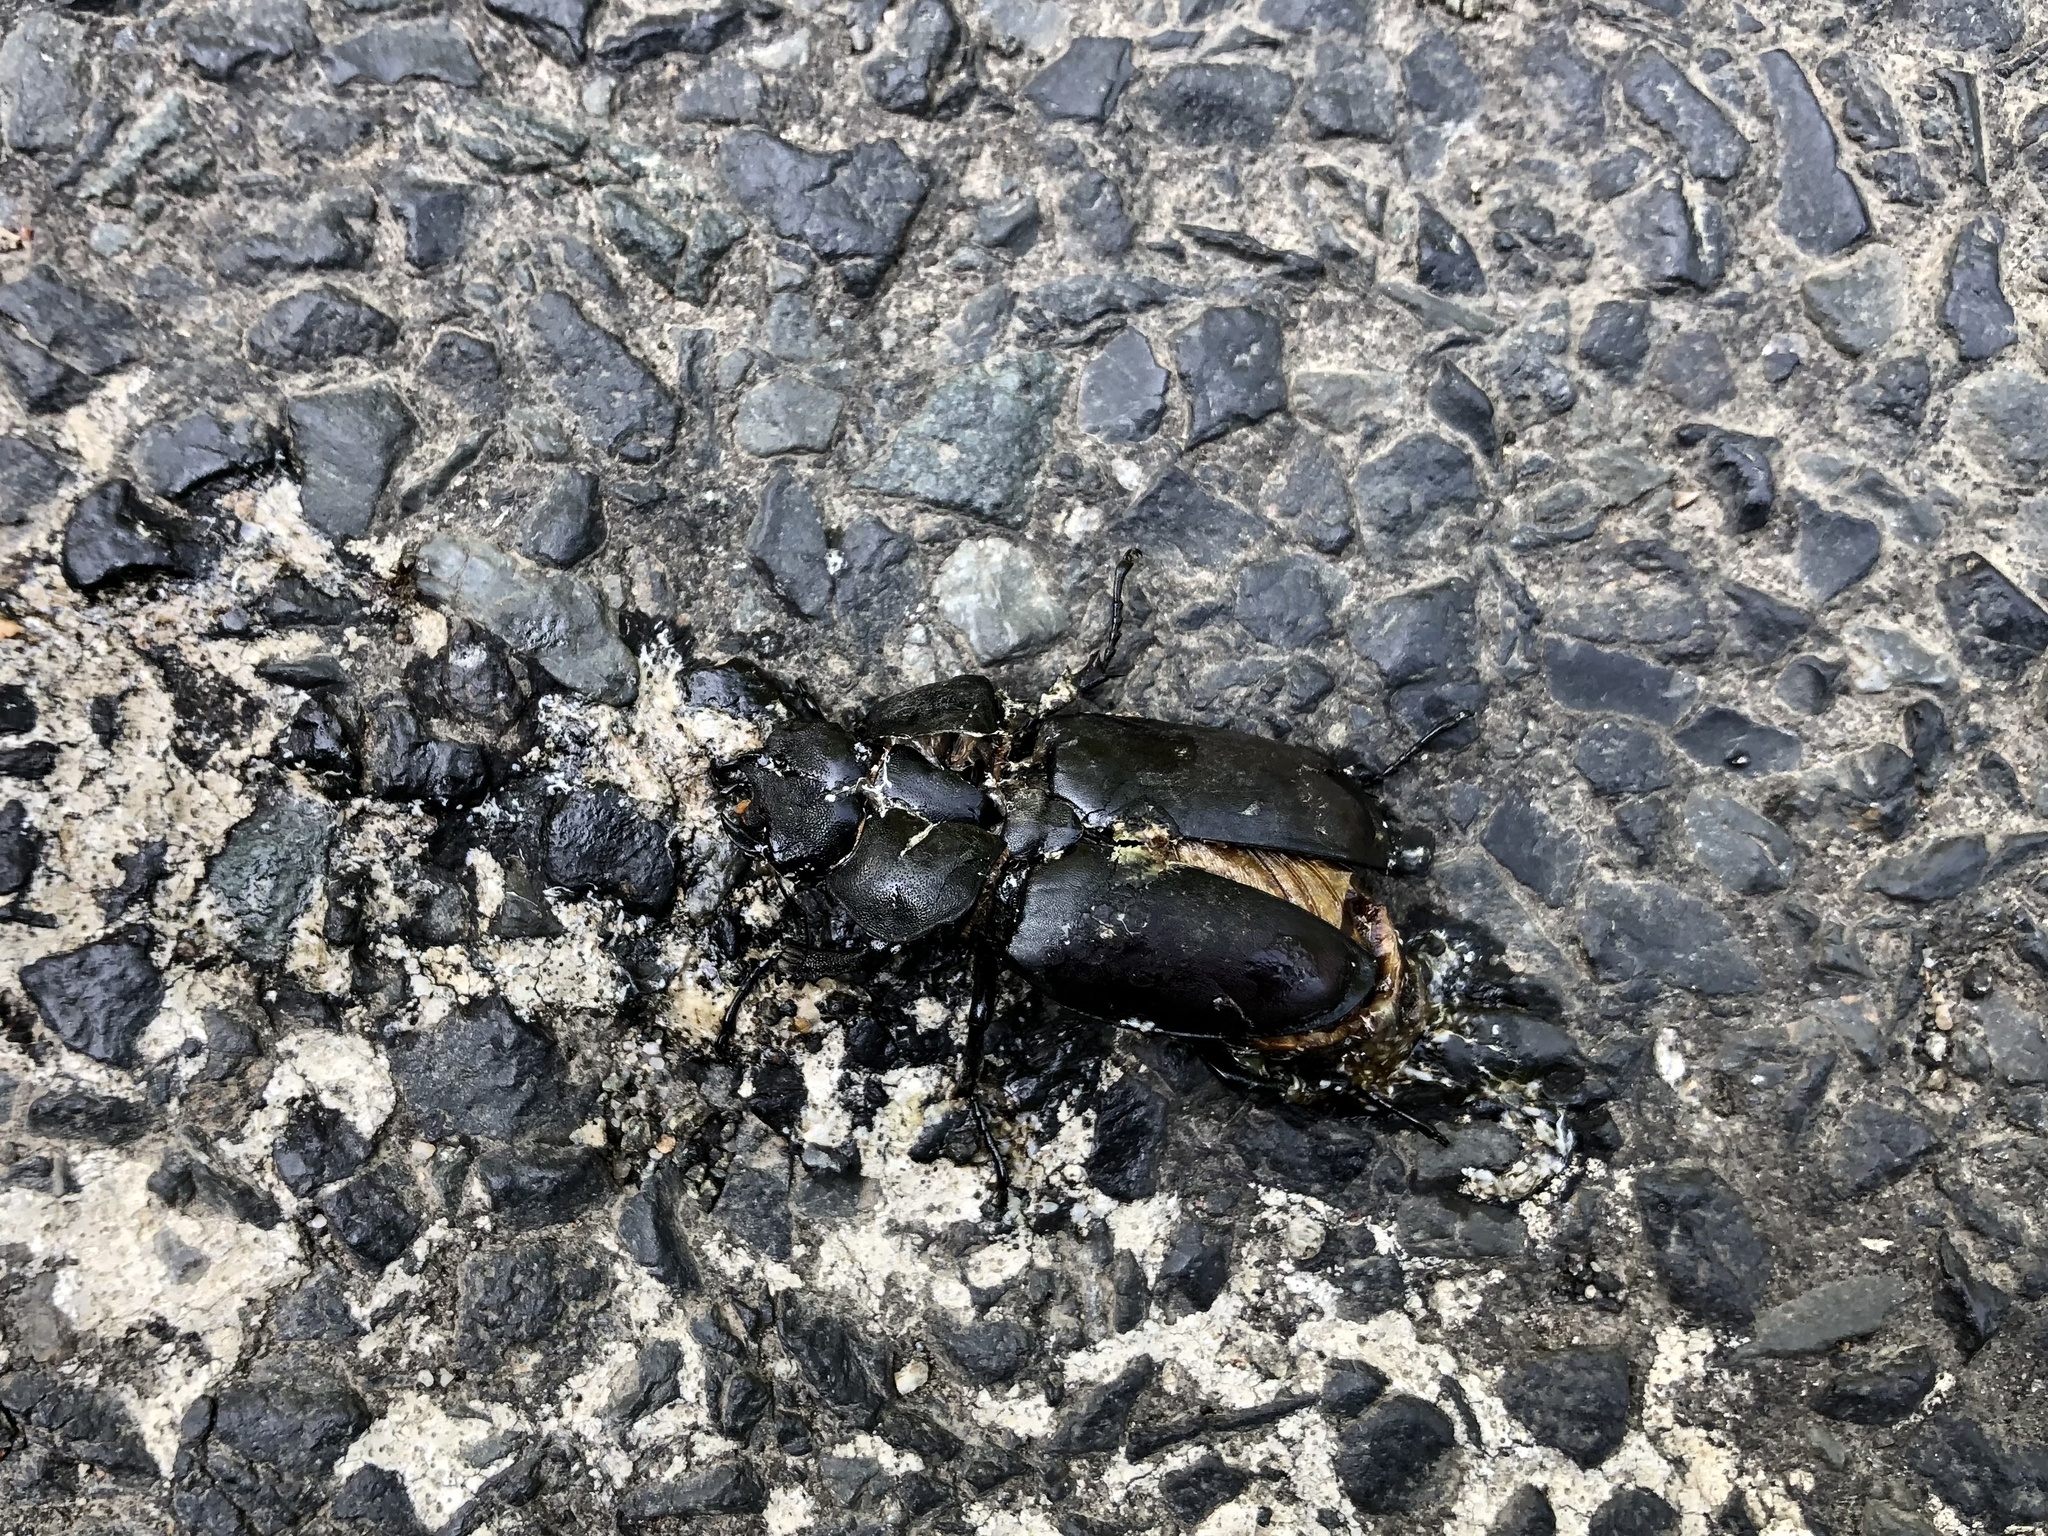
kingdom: Animalia
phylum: Arthropoda
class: Insecta
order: Coleoptera
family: Lucanidae
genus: Lucanus
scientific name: Lucanus cervus
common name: Stag beetle
